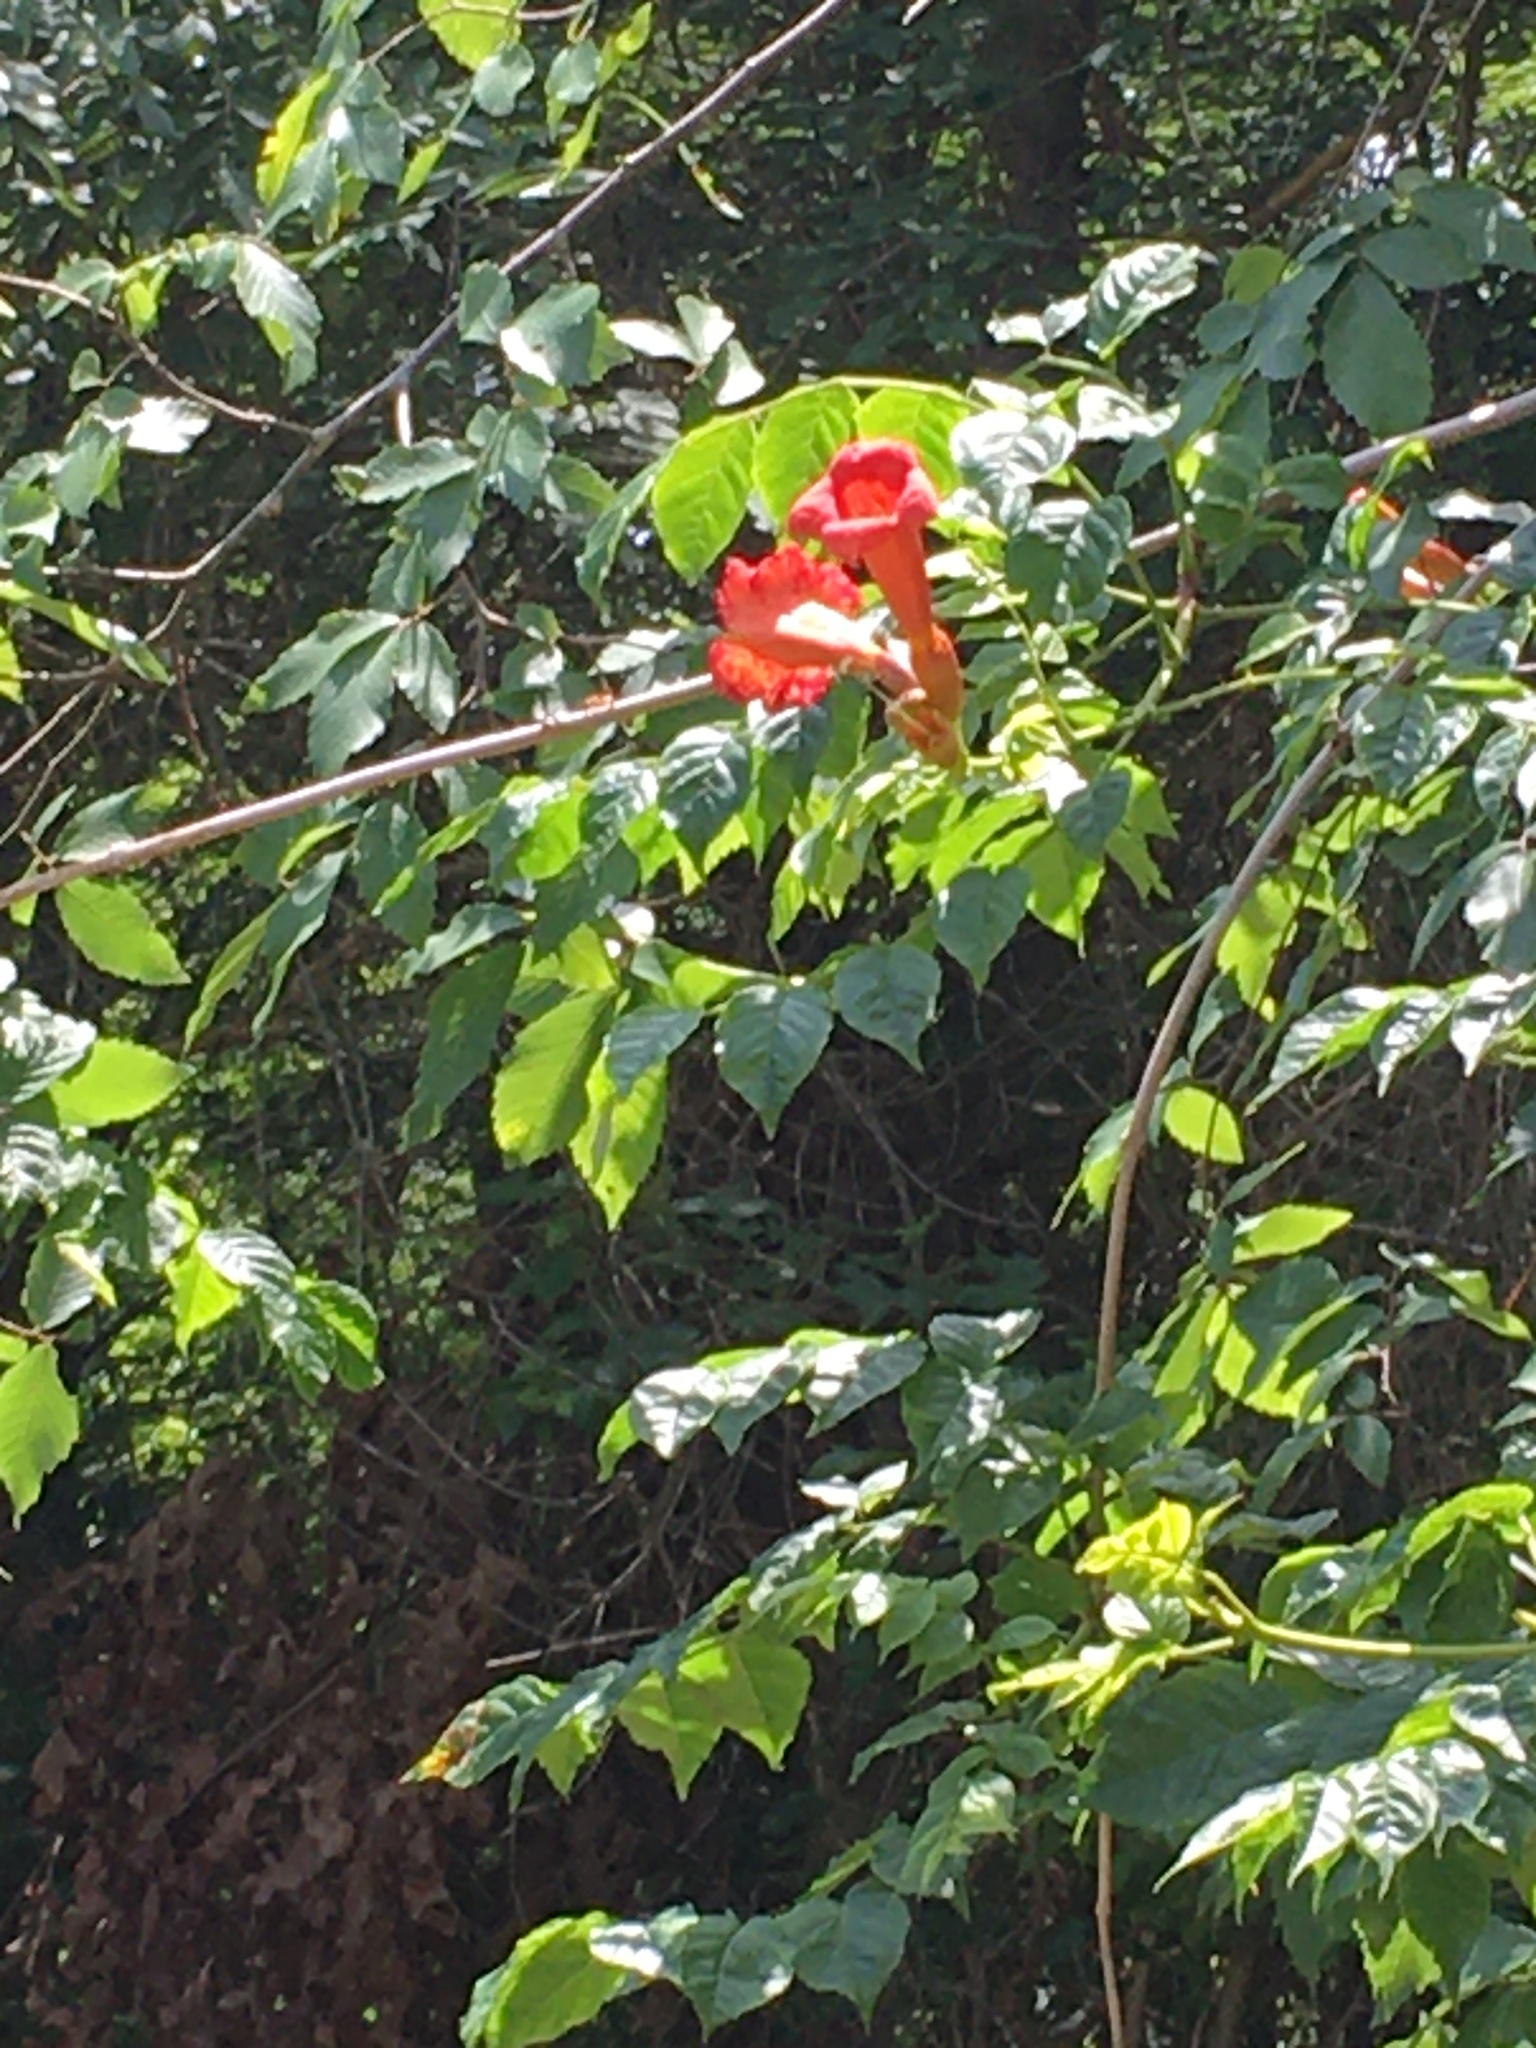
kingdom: Plantae
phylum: Tracheophyta
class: Magnoliopsida
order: Lamiales
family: Bignoniaceae
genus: Campsis
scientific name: Campsis radicans
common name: Trumpet-creeper
